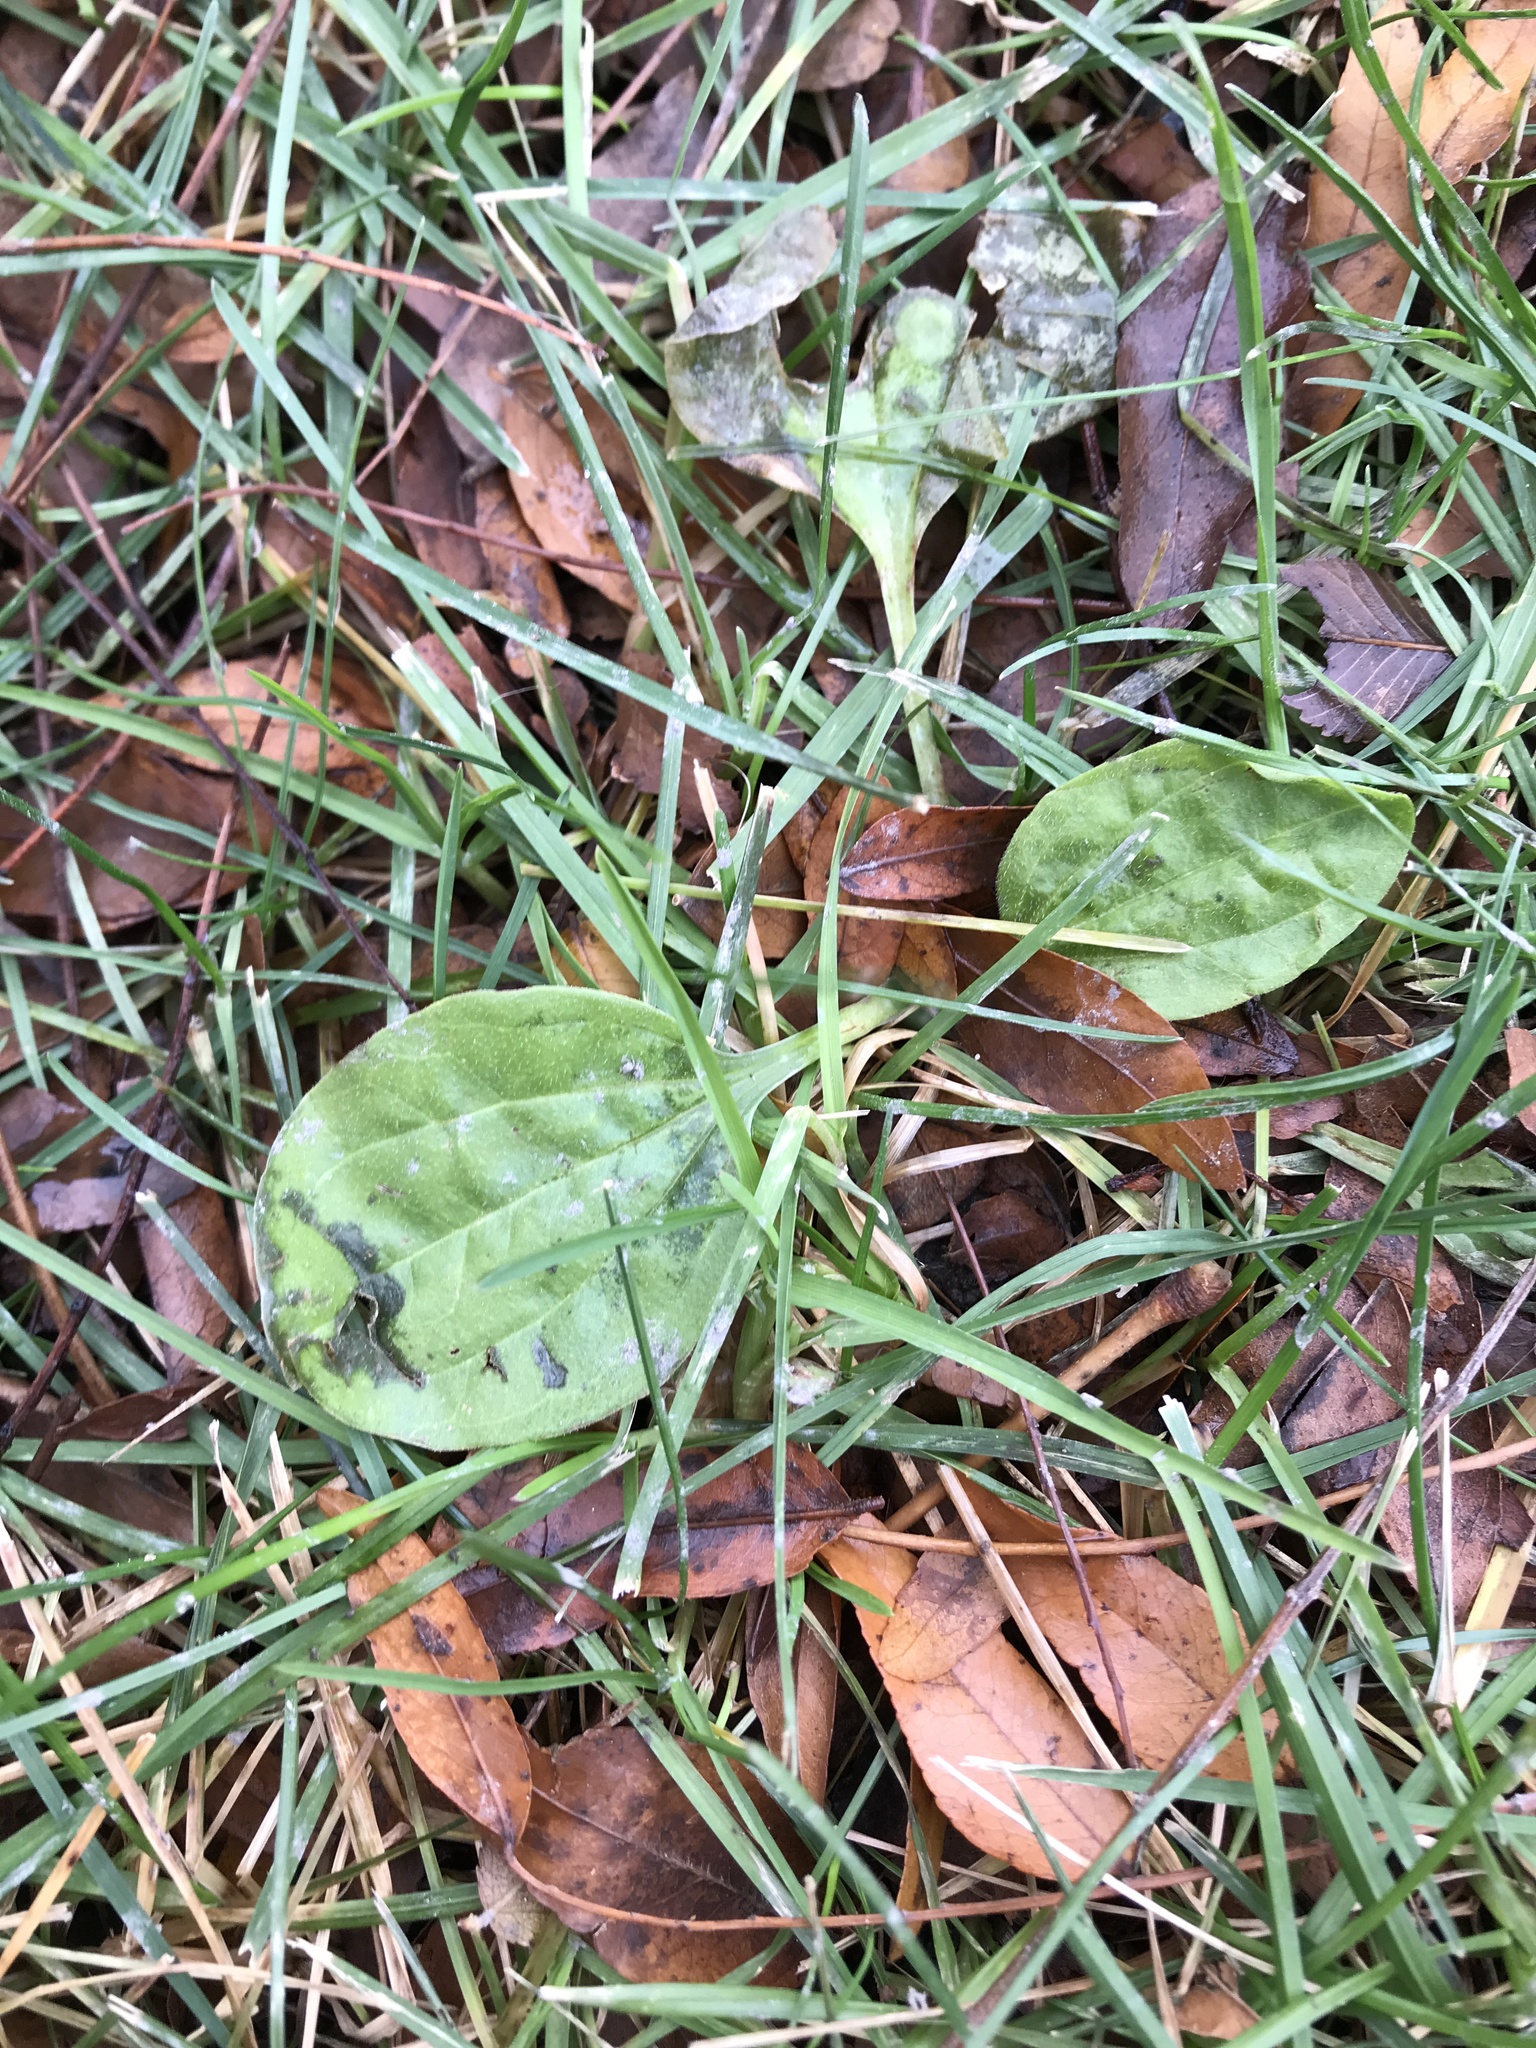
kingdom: Plantae
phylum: Tracheophyta
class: Magnoliopsida
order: Lamiales
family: Plantaginaceae
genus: Plantago
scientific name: Plantago major
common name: Common plantain
